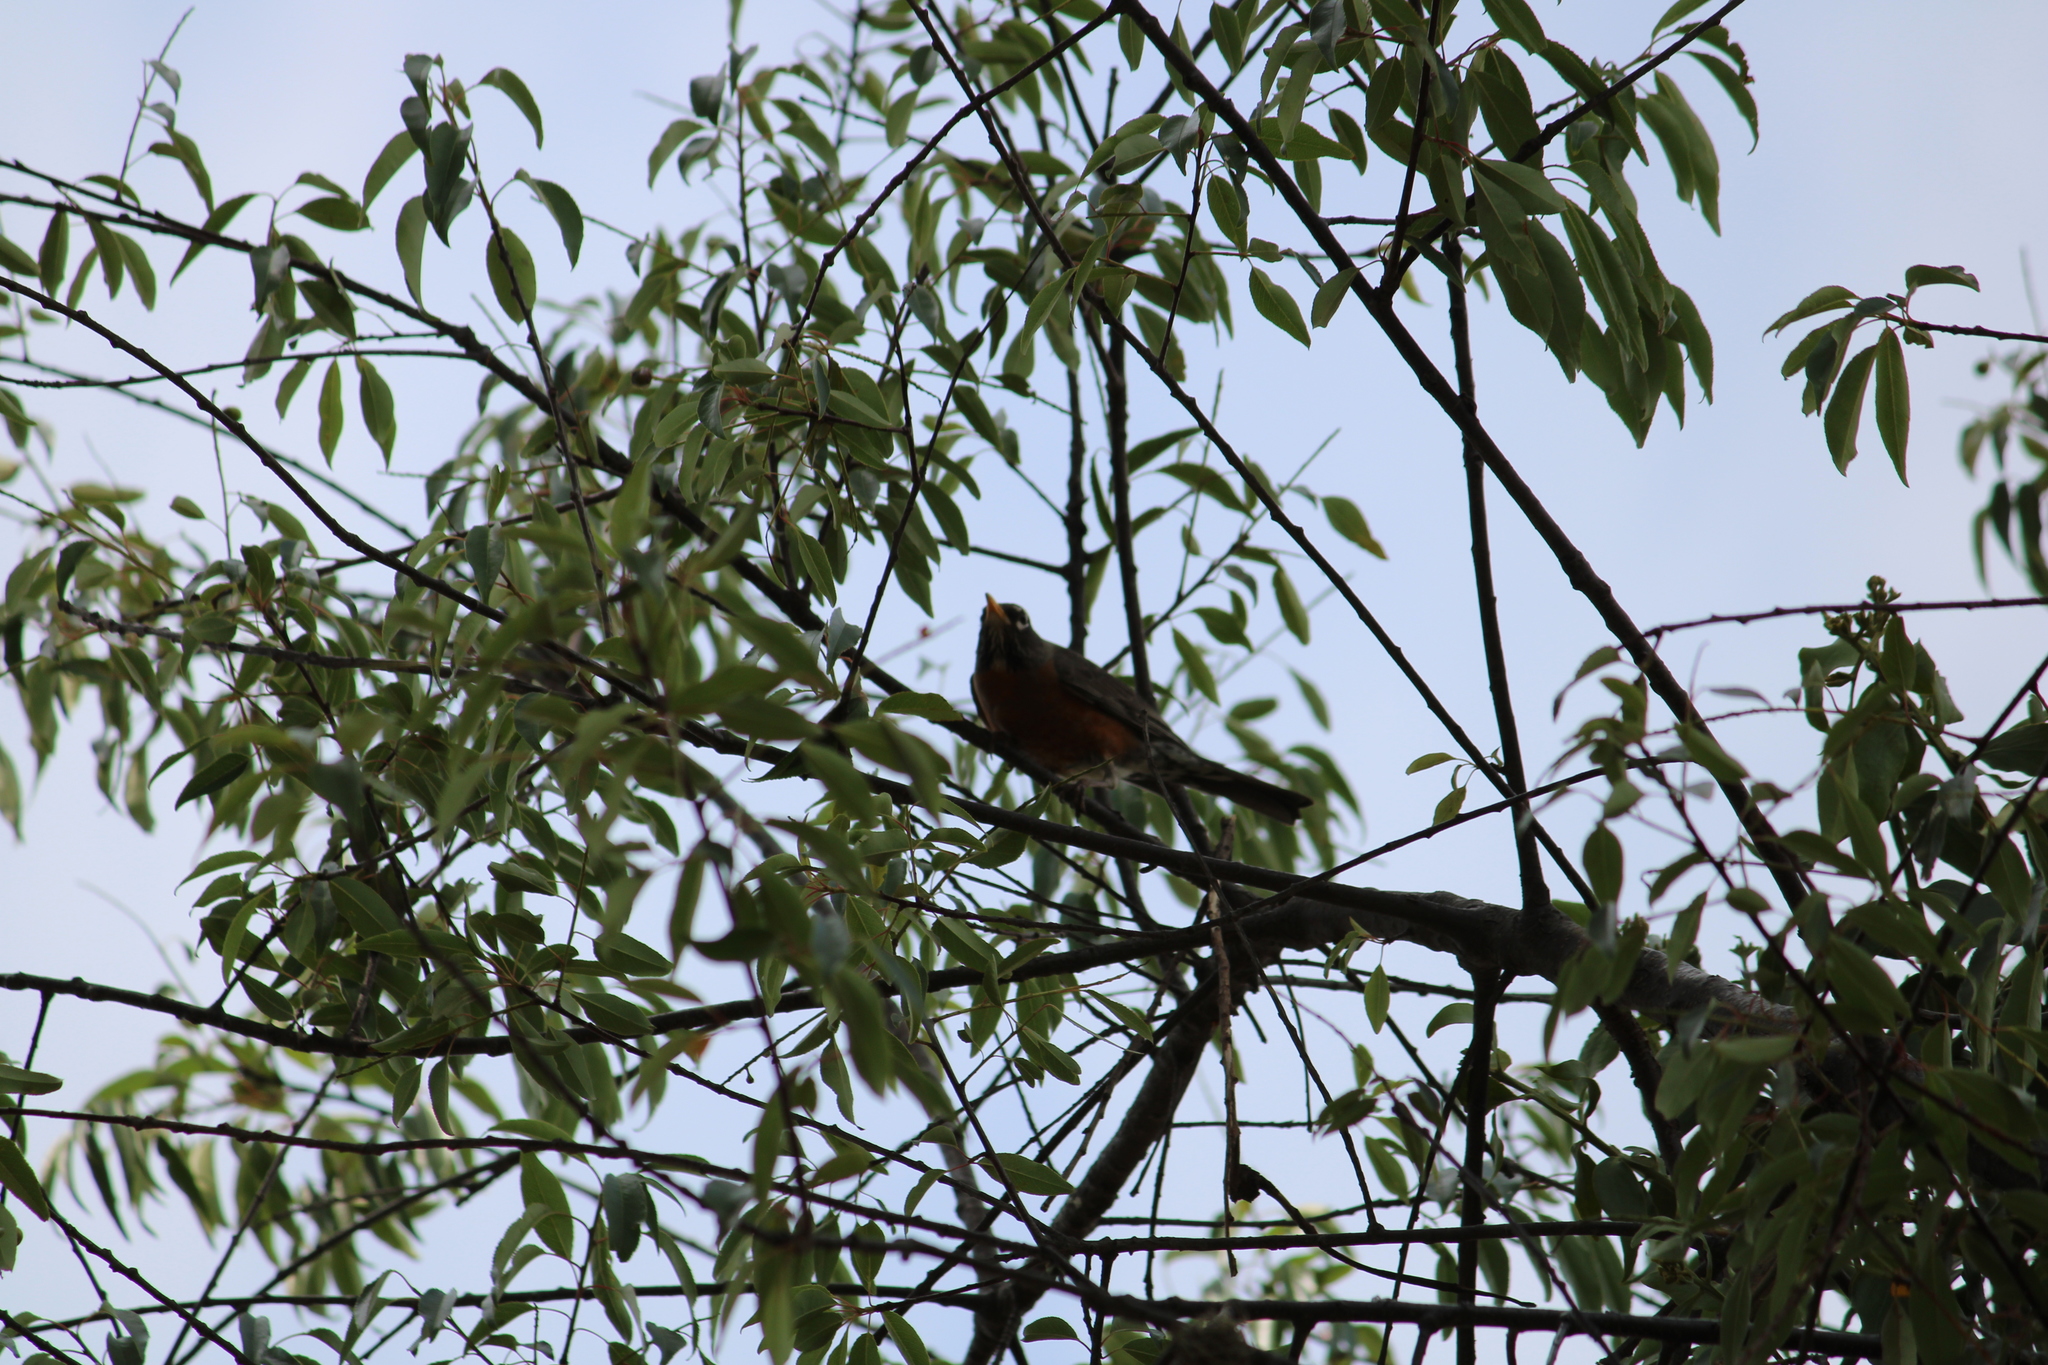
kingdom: Animalia
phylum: Chordata
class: Aves
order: Passeriformes
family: Turdidae
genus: Turdus
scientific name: Turdus migratorius
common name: American robin
